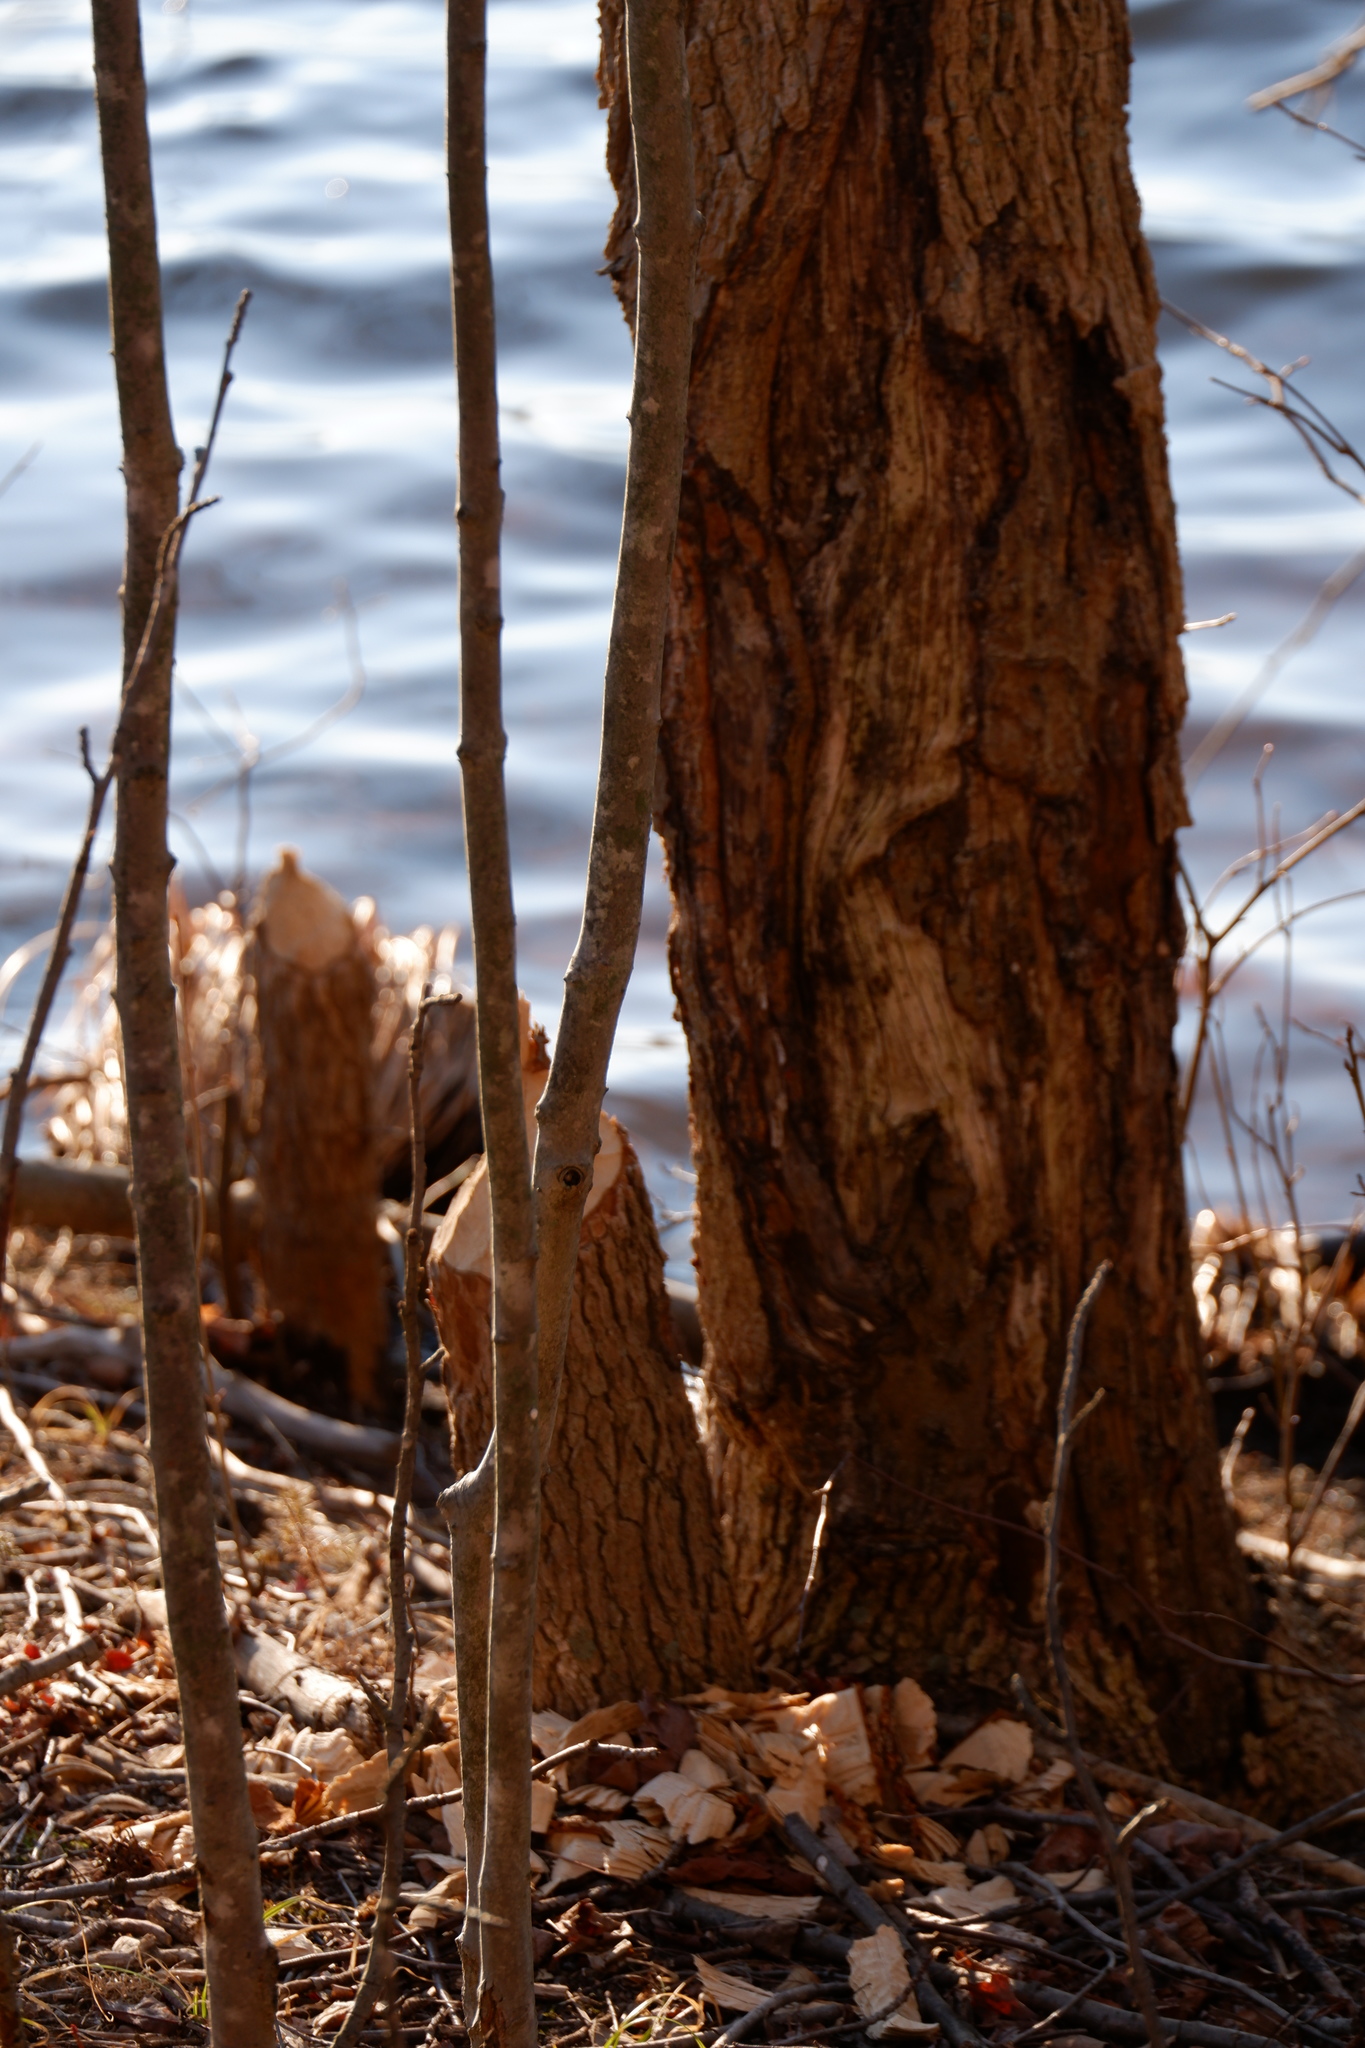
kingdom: Animalia
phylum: Chordata
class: Mammalia
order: Rodentia
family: Castoridae
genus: Castor
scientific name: Castor canadensis
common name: American beaver
